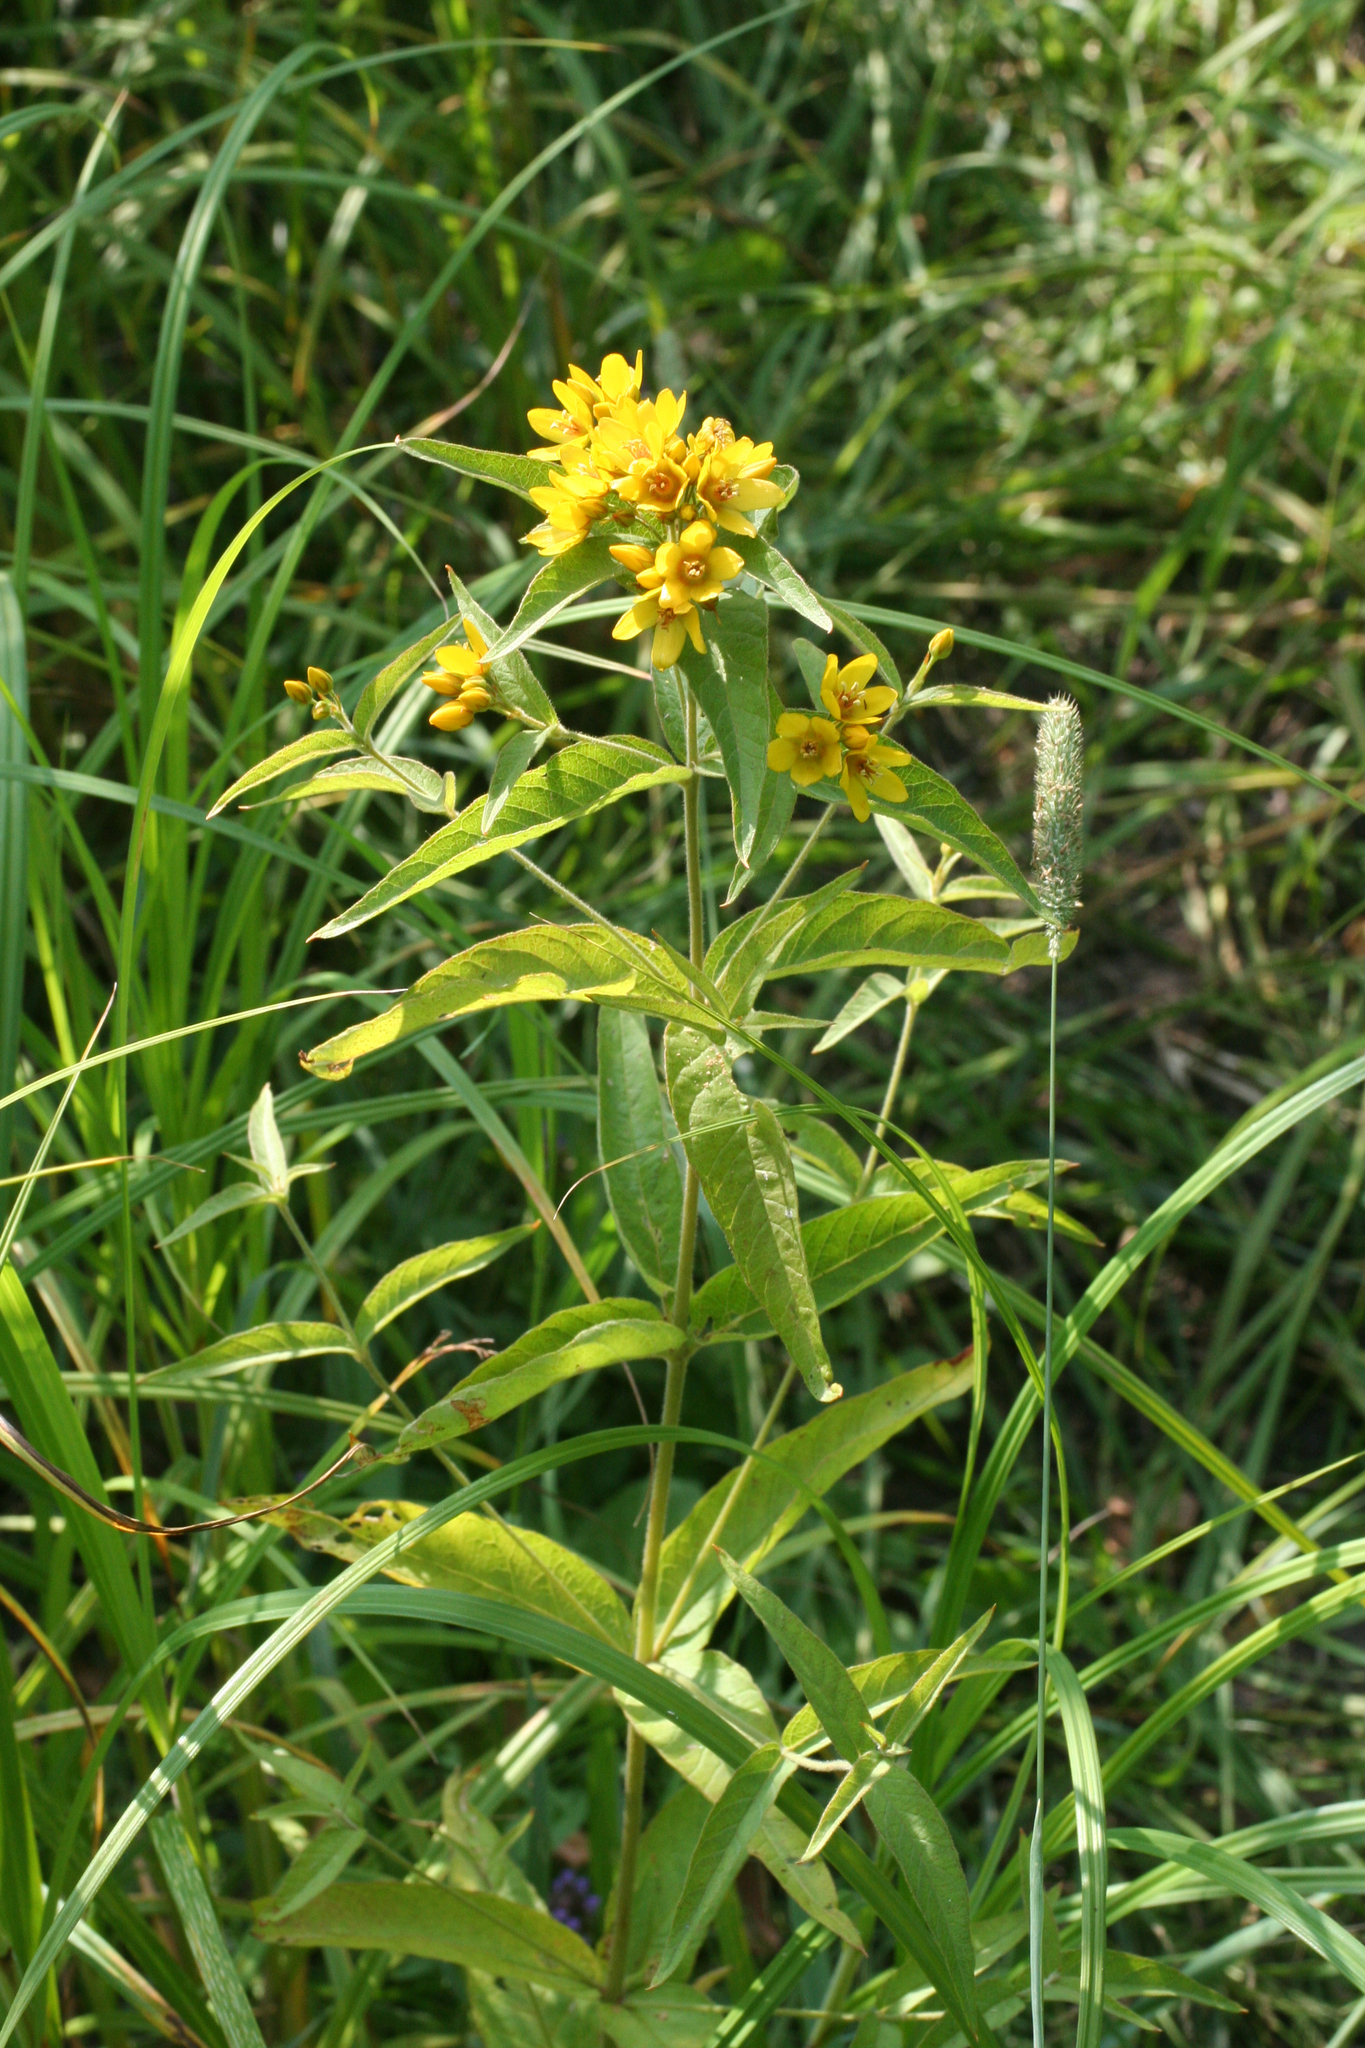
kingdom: Plantae
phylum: Tracheophyta
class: Magnoliopsida
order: Ericales
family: Primulaceae
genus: Lysimachia
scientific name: Lysimachia vulgaris
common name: Yellow loosestrife
